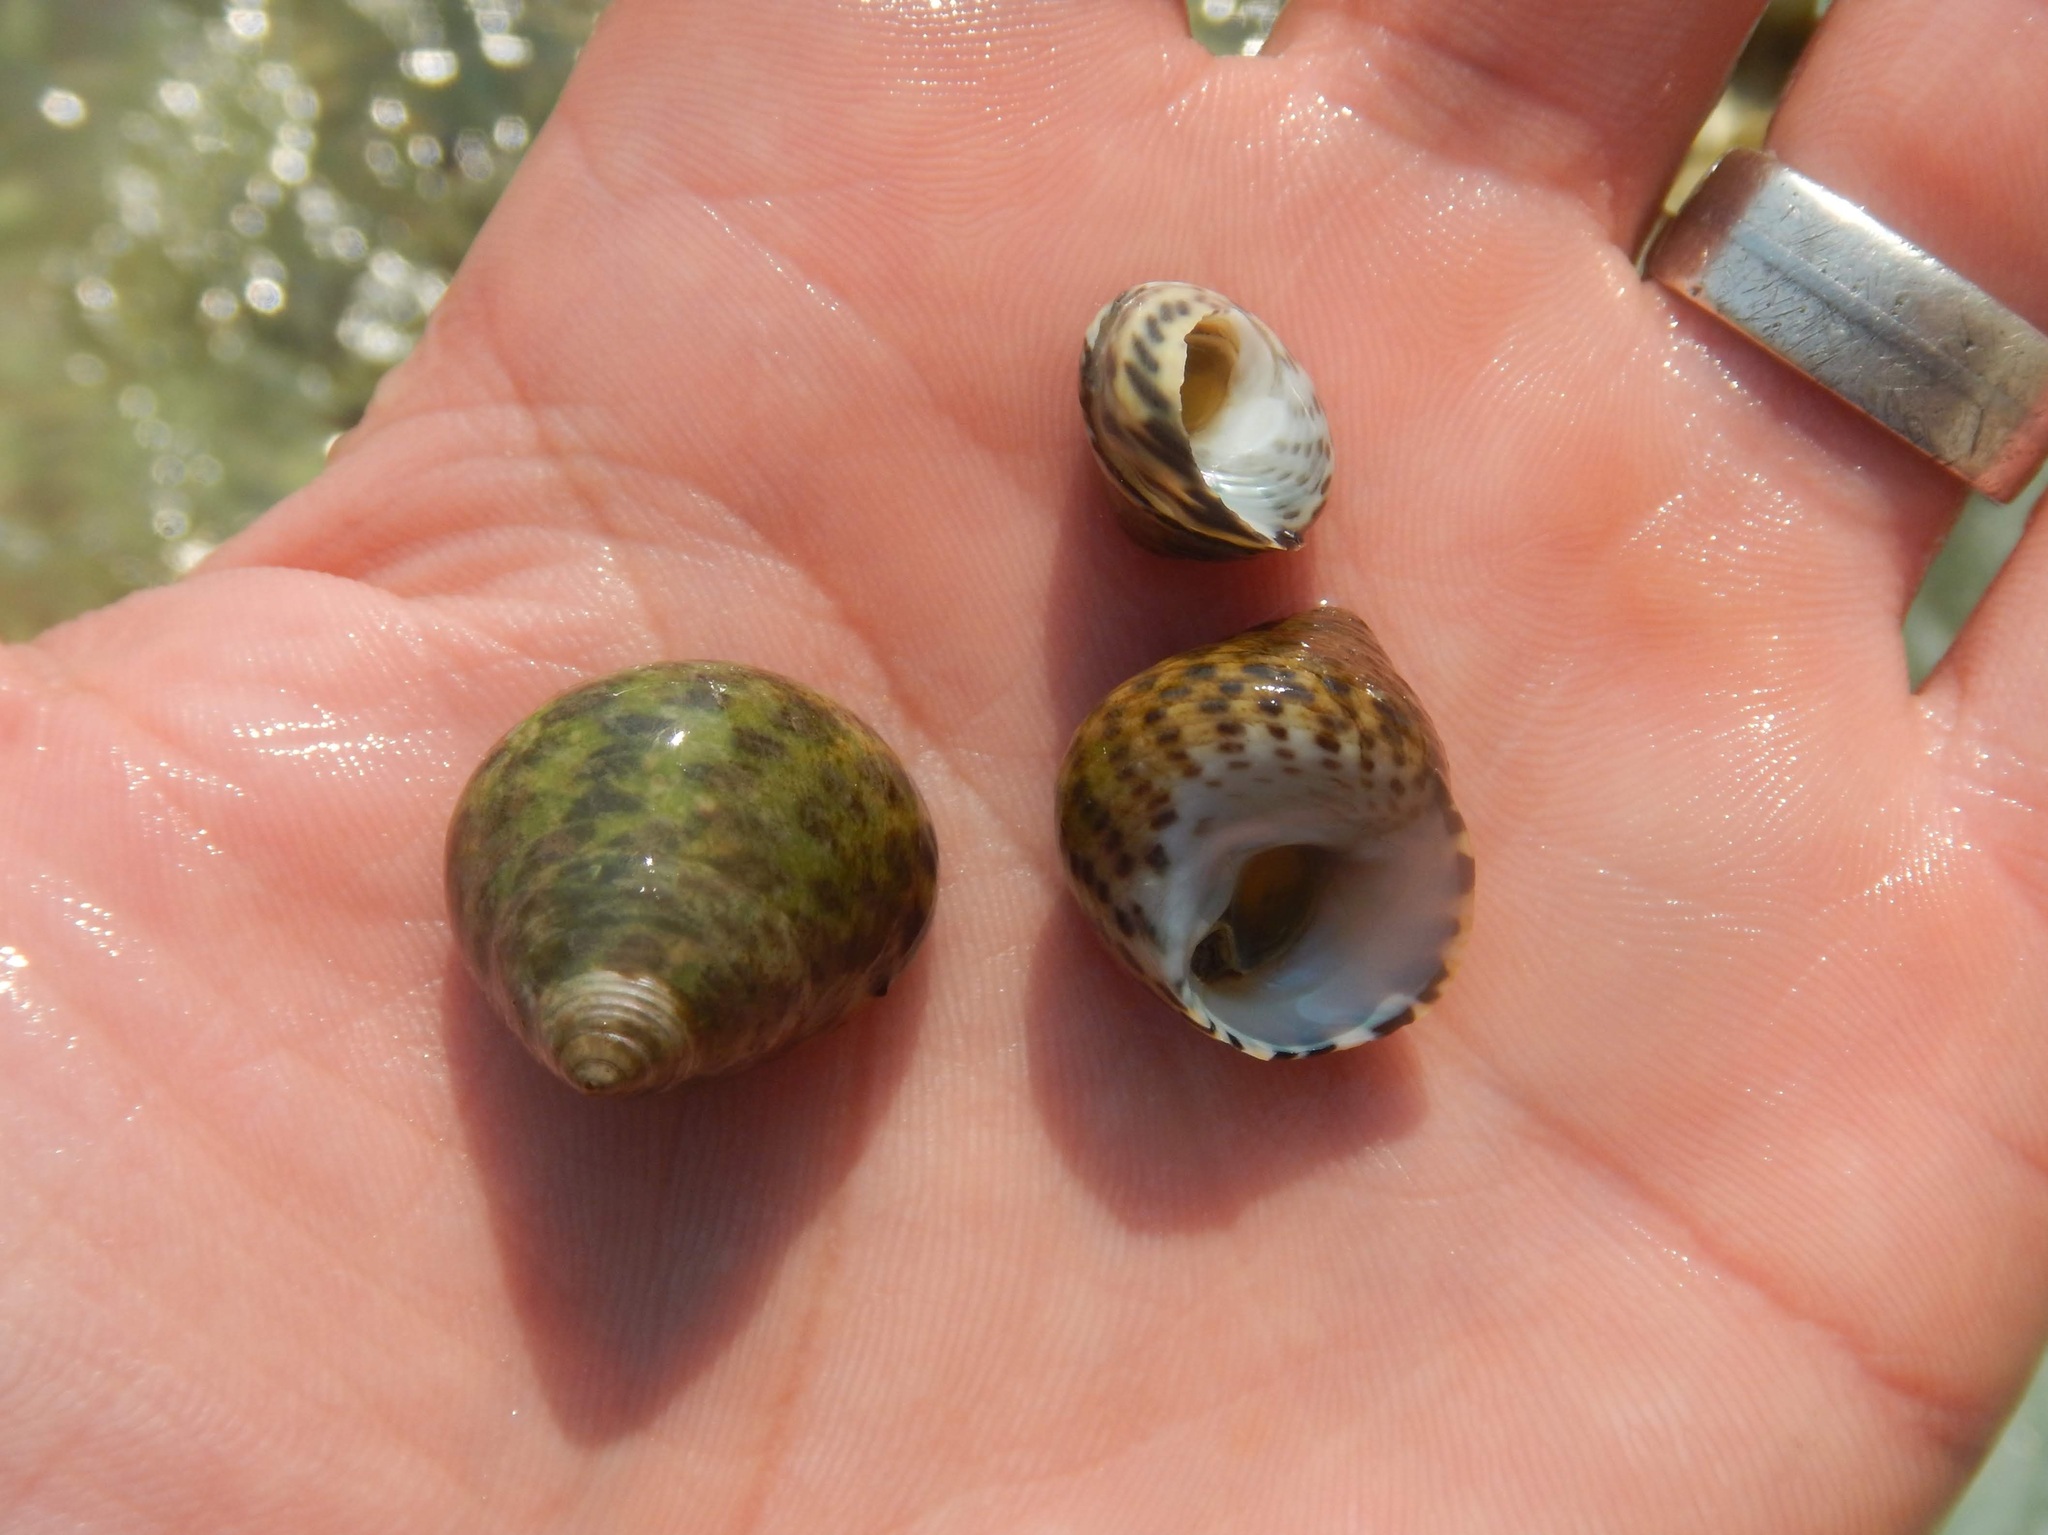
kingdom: Animalia
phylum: Mollusca
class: Gastropoda
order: Trochida
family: Trochidae
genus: Phorcus
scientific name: Phorcus turbinatus
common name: Turbinate monodont
